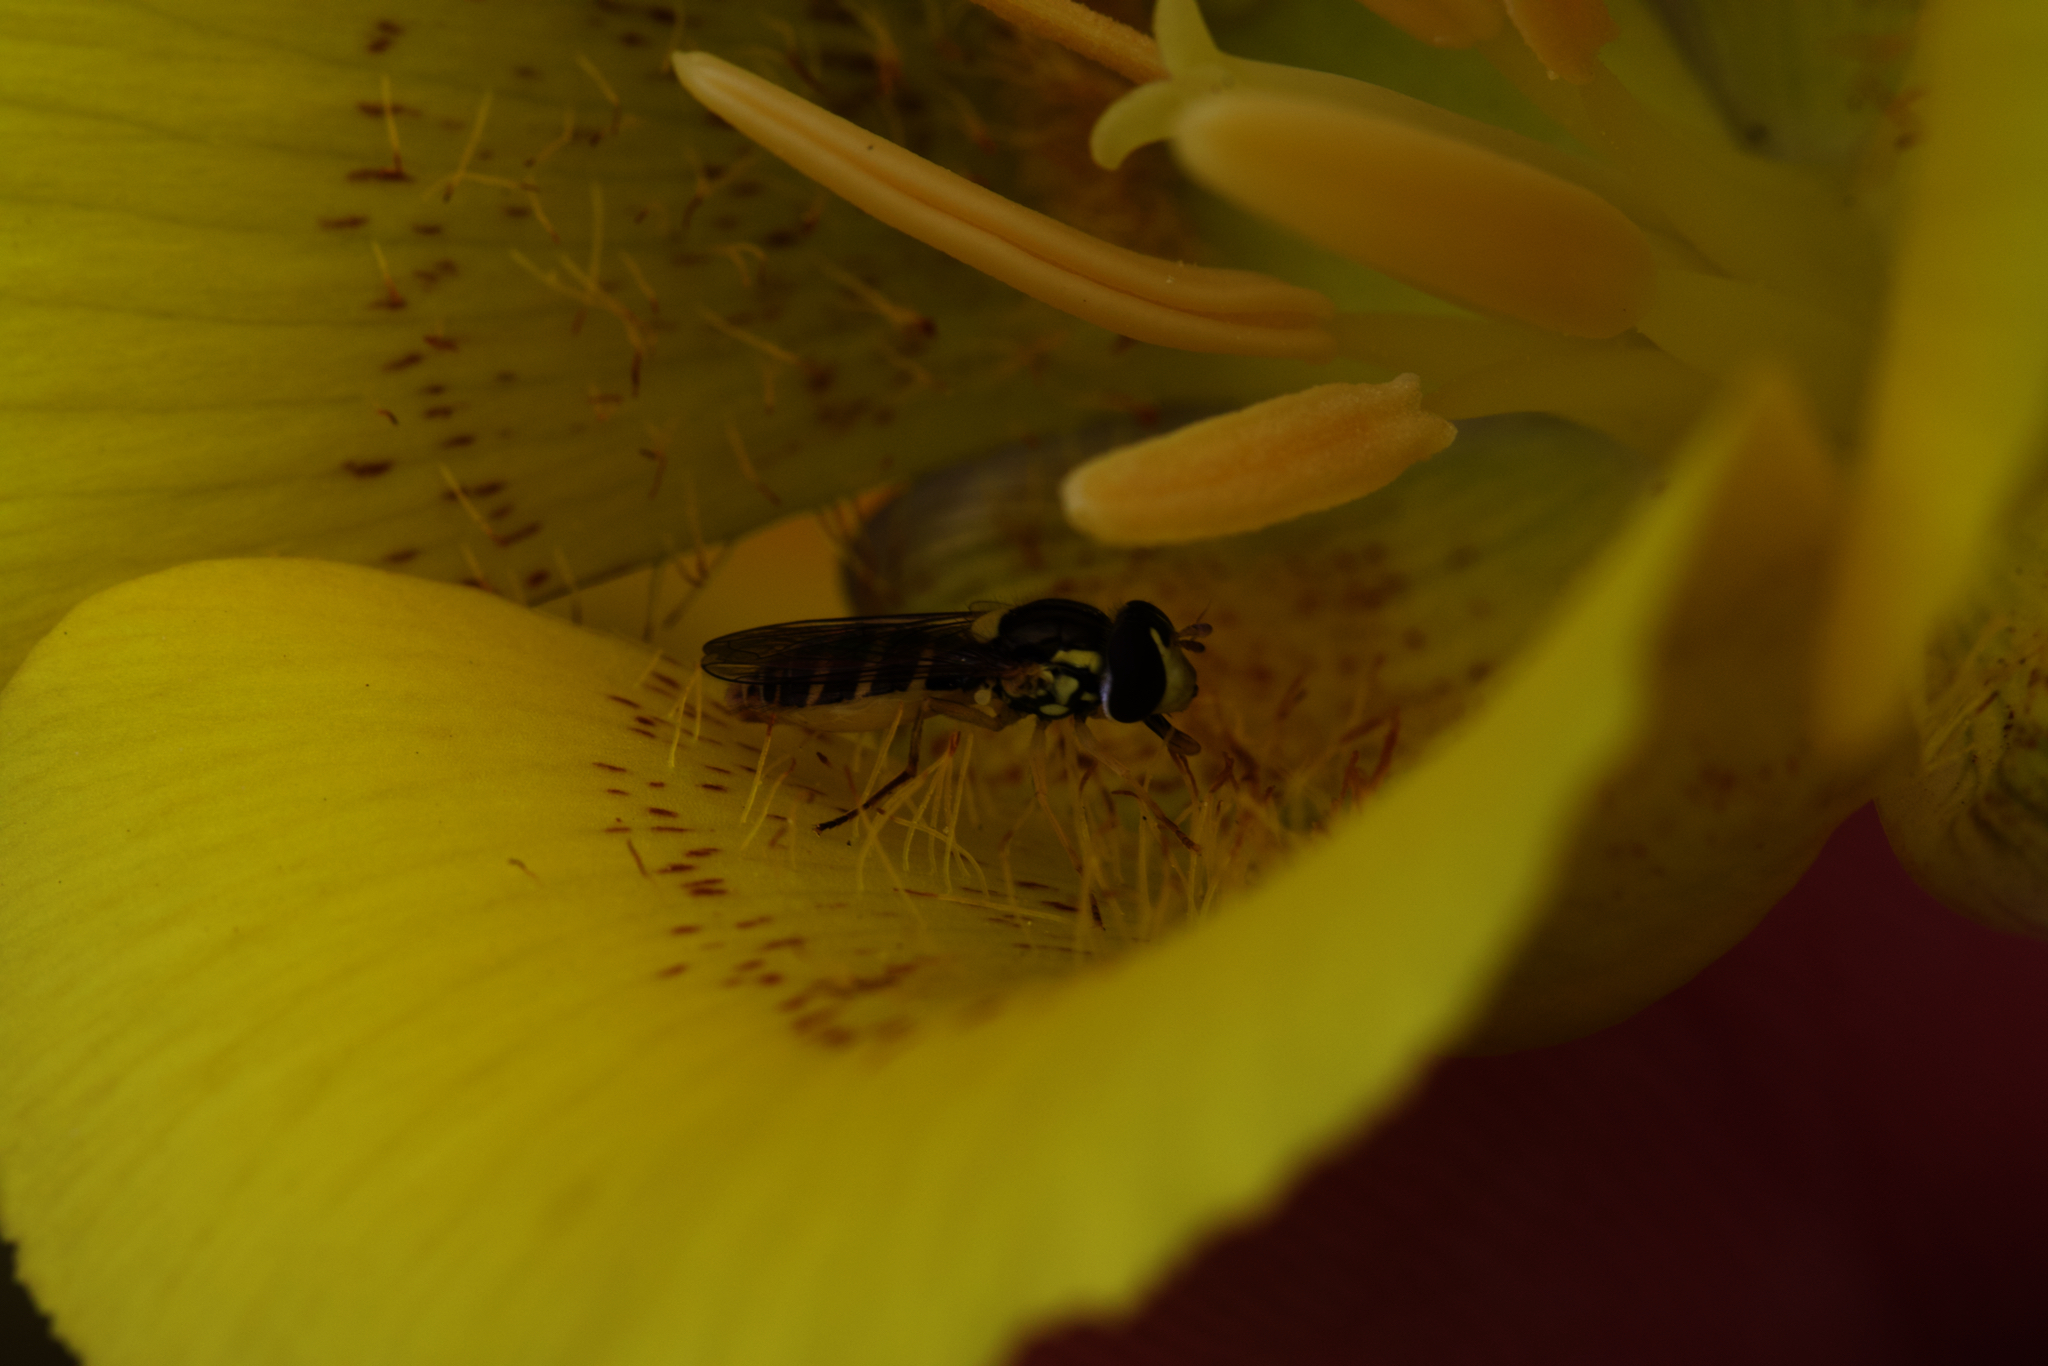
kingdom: Animalia
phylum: Arthropoda
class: Insecta
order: Diptera
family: Syrphidae
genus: Sphaerophoria
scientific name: Sphaerophoria sulphuripes
